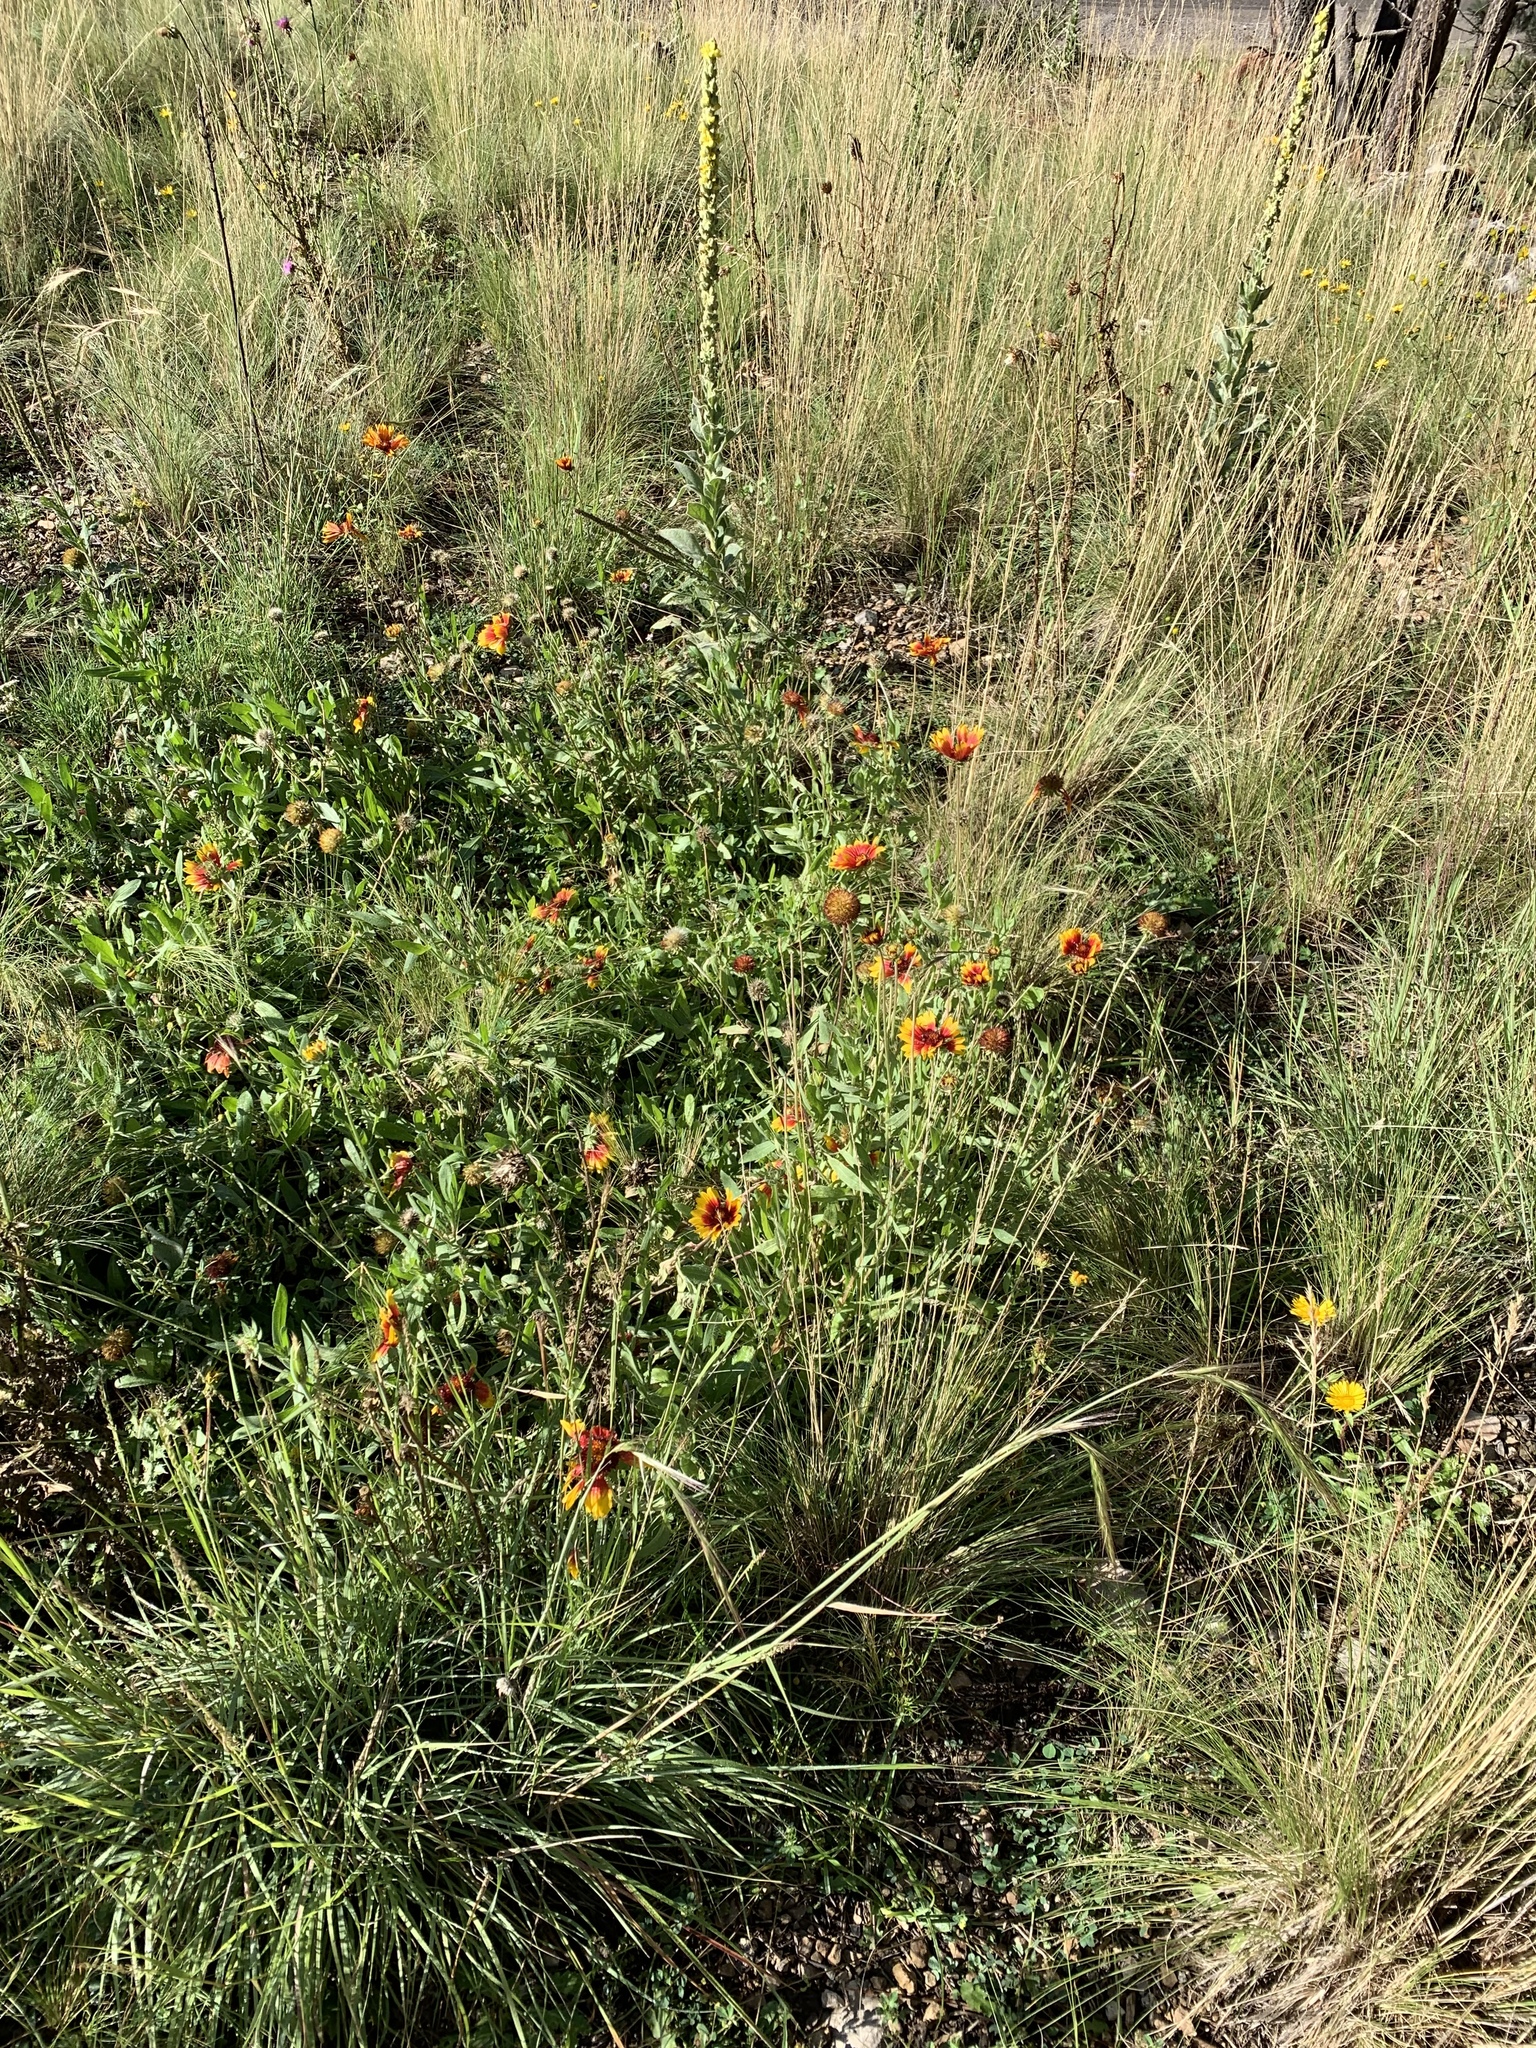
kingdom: Plantae
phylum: Tracheophyta
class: Magnoliopsida
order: Asterales
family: Asteraceae
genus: Gaillardia
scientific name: Gaillardia pulchella
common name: Firewheel
